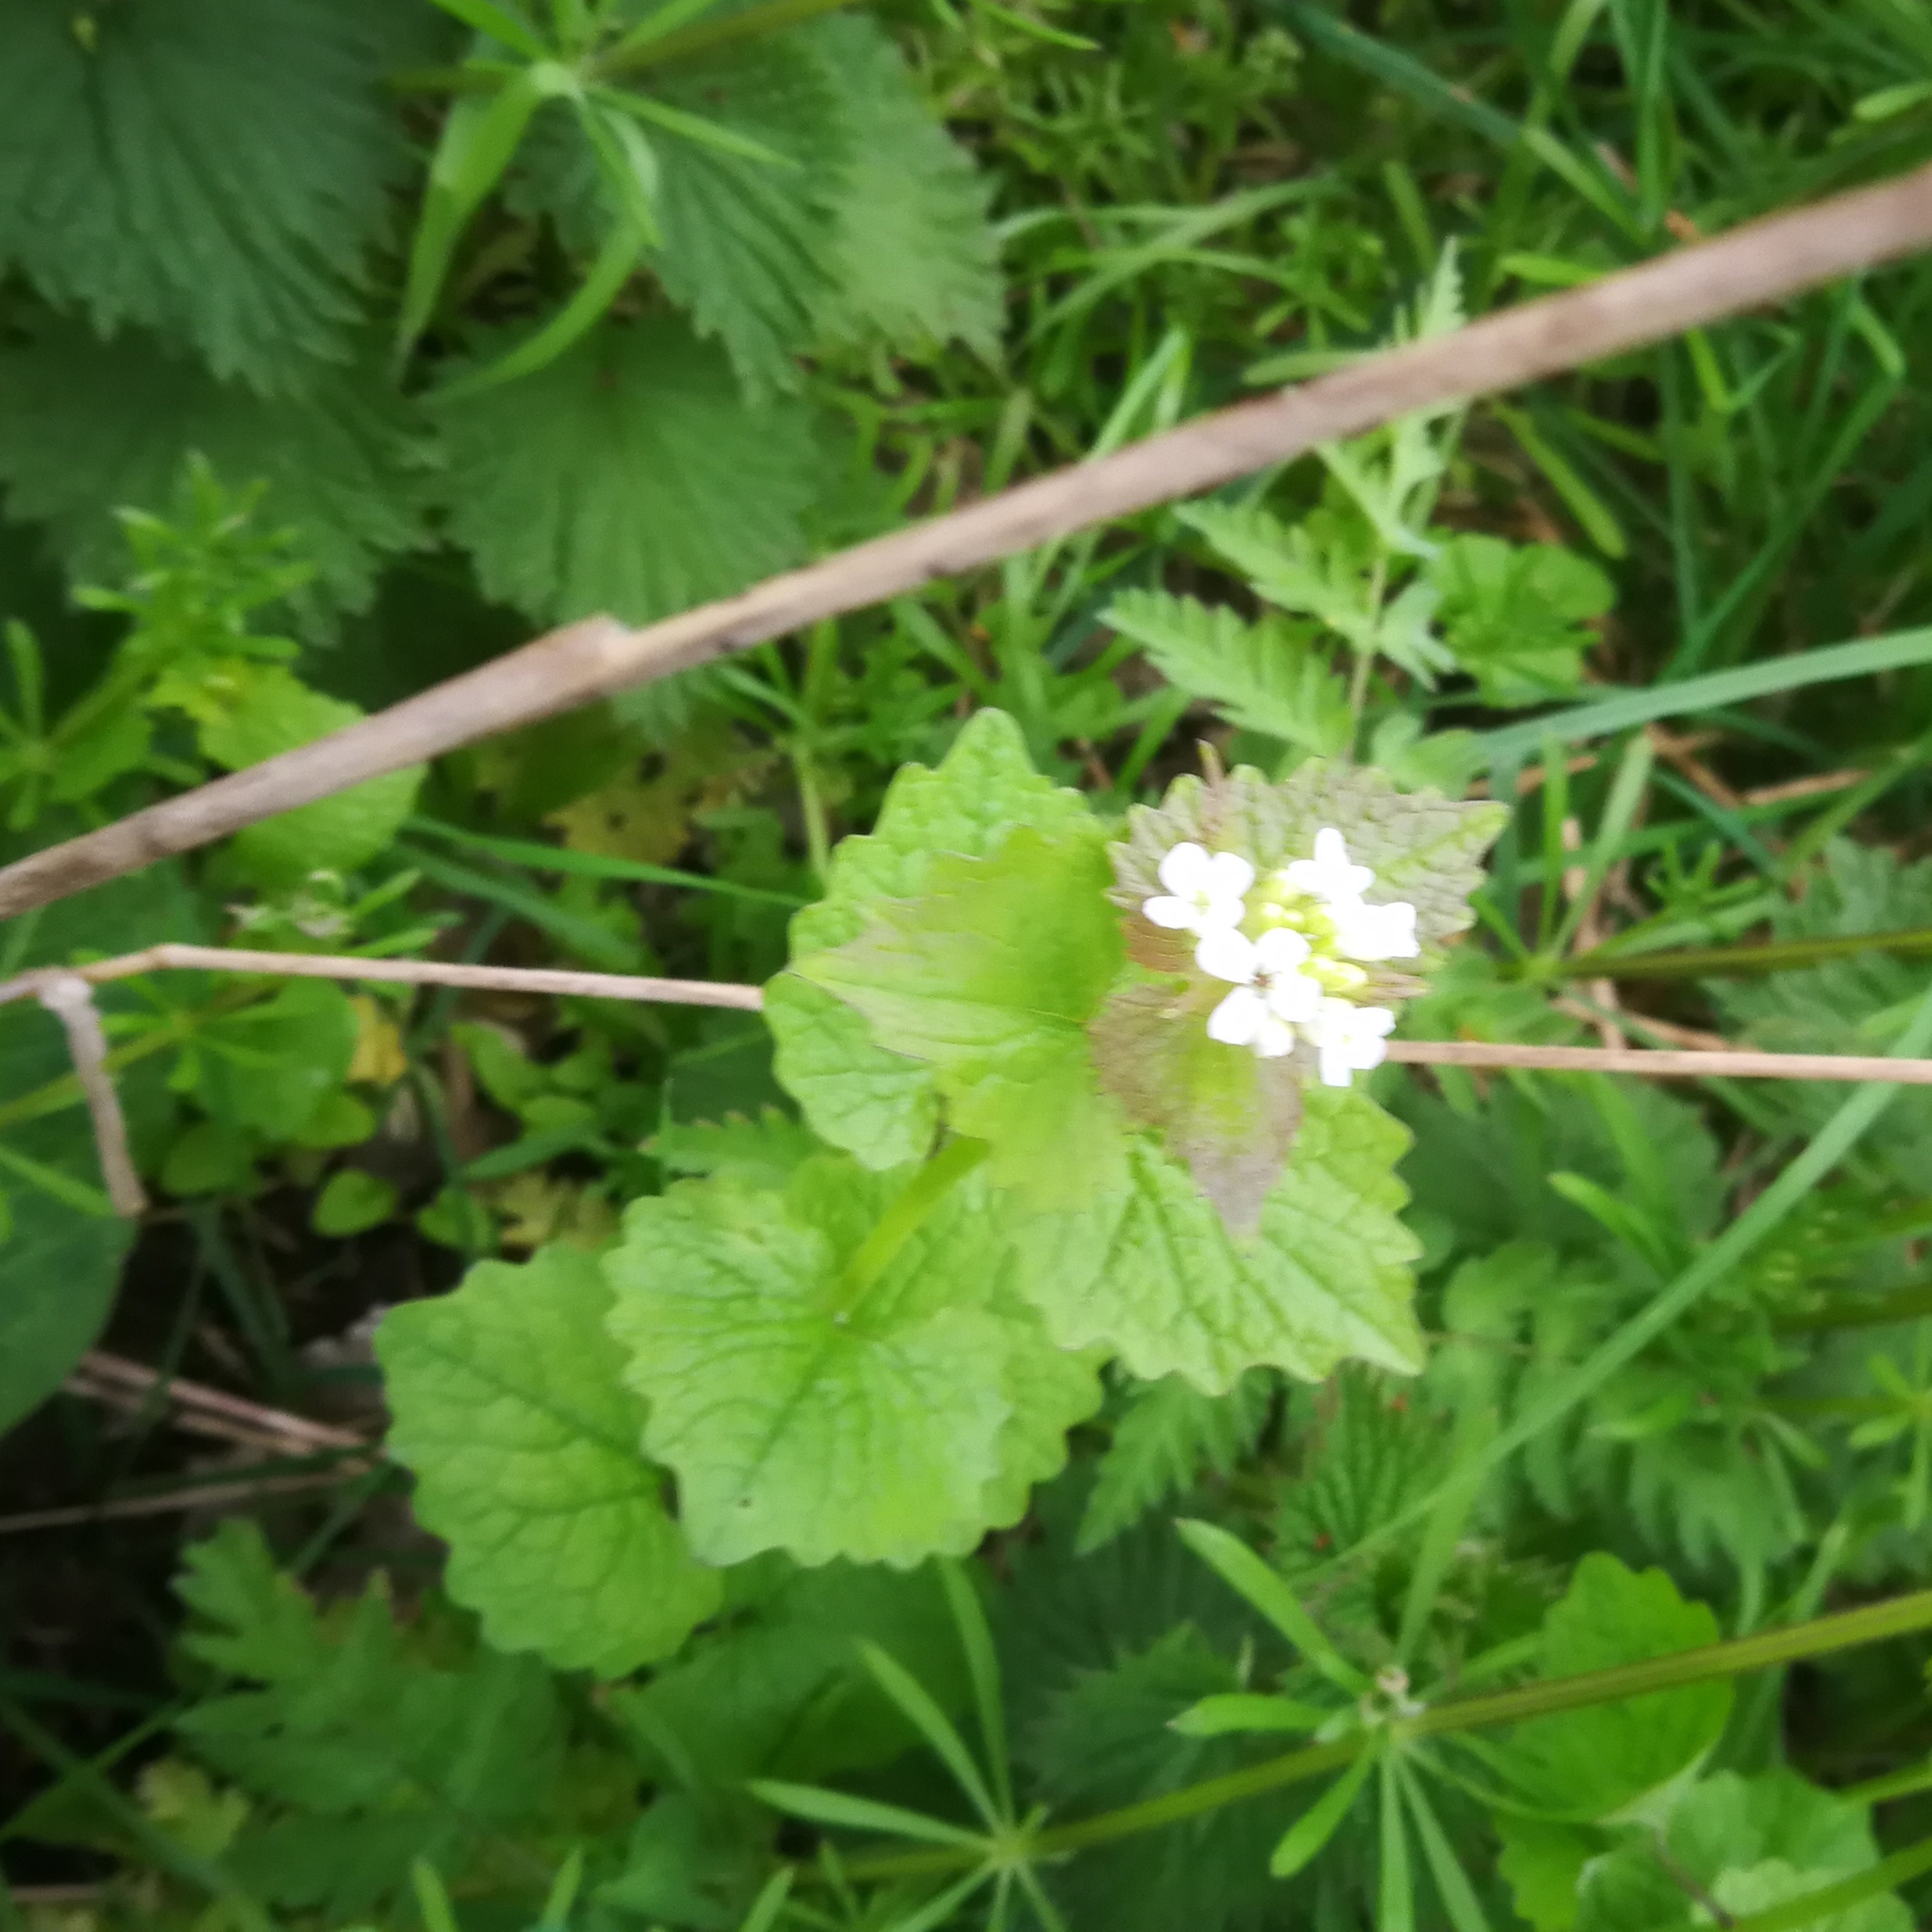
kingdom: Plantae
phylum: Tracheophyta
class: Magnoliopsida
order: Brassicales
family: Brassicaceae
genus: Alliaria
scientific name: Alliaria petiolata
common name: Garlic mustard
